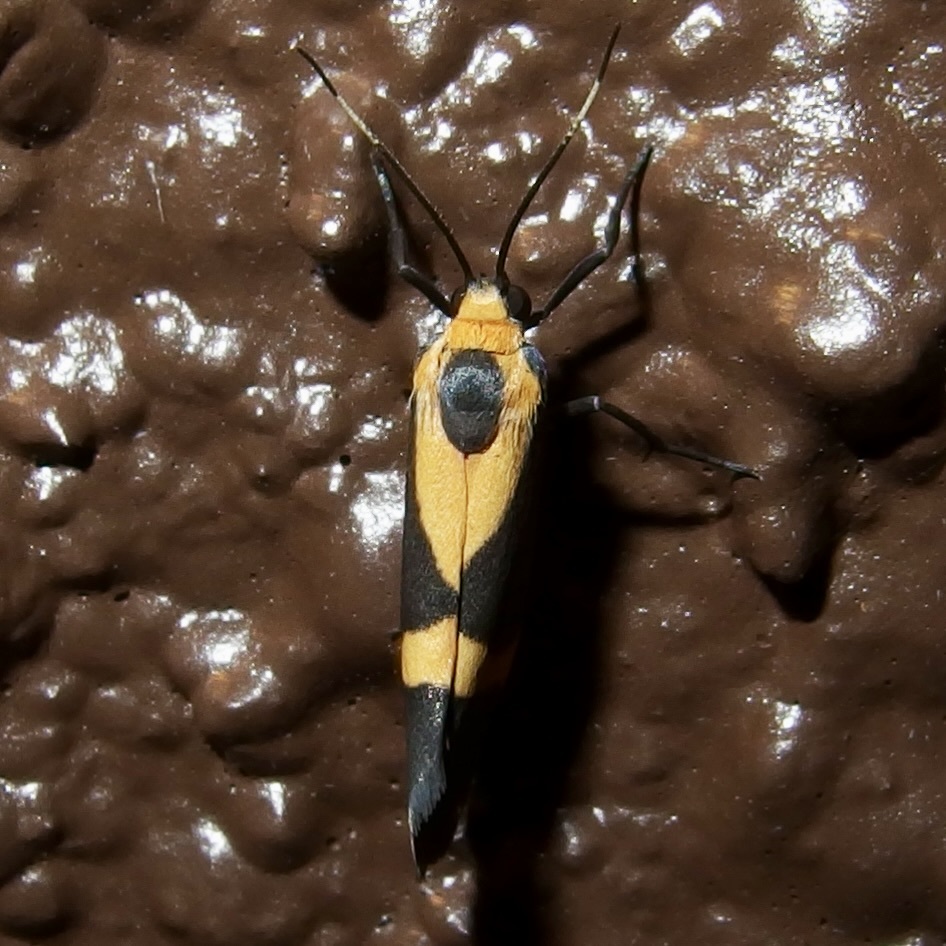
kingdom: Animalia
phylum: Arthropoda
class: Insecta
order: Lepidoptera
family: Erebidae
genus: Cisthene
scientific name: Cisthene tenuifascia
